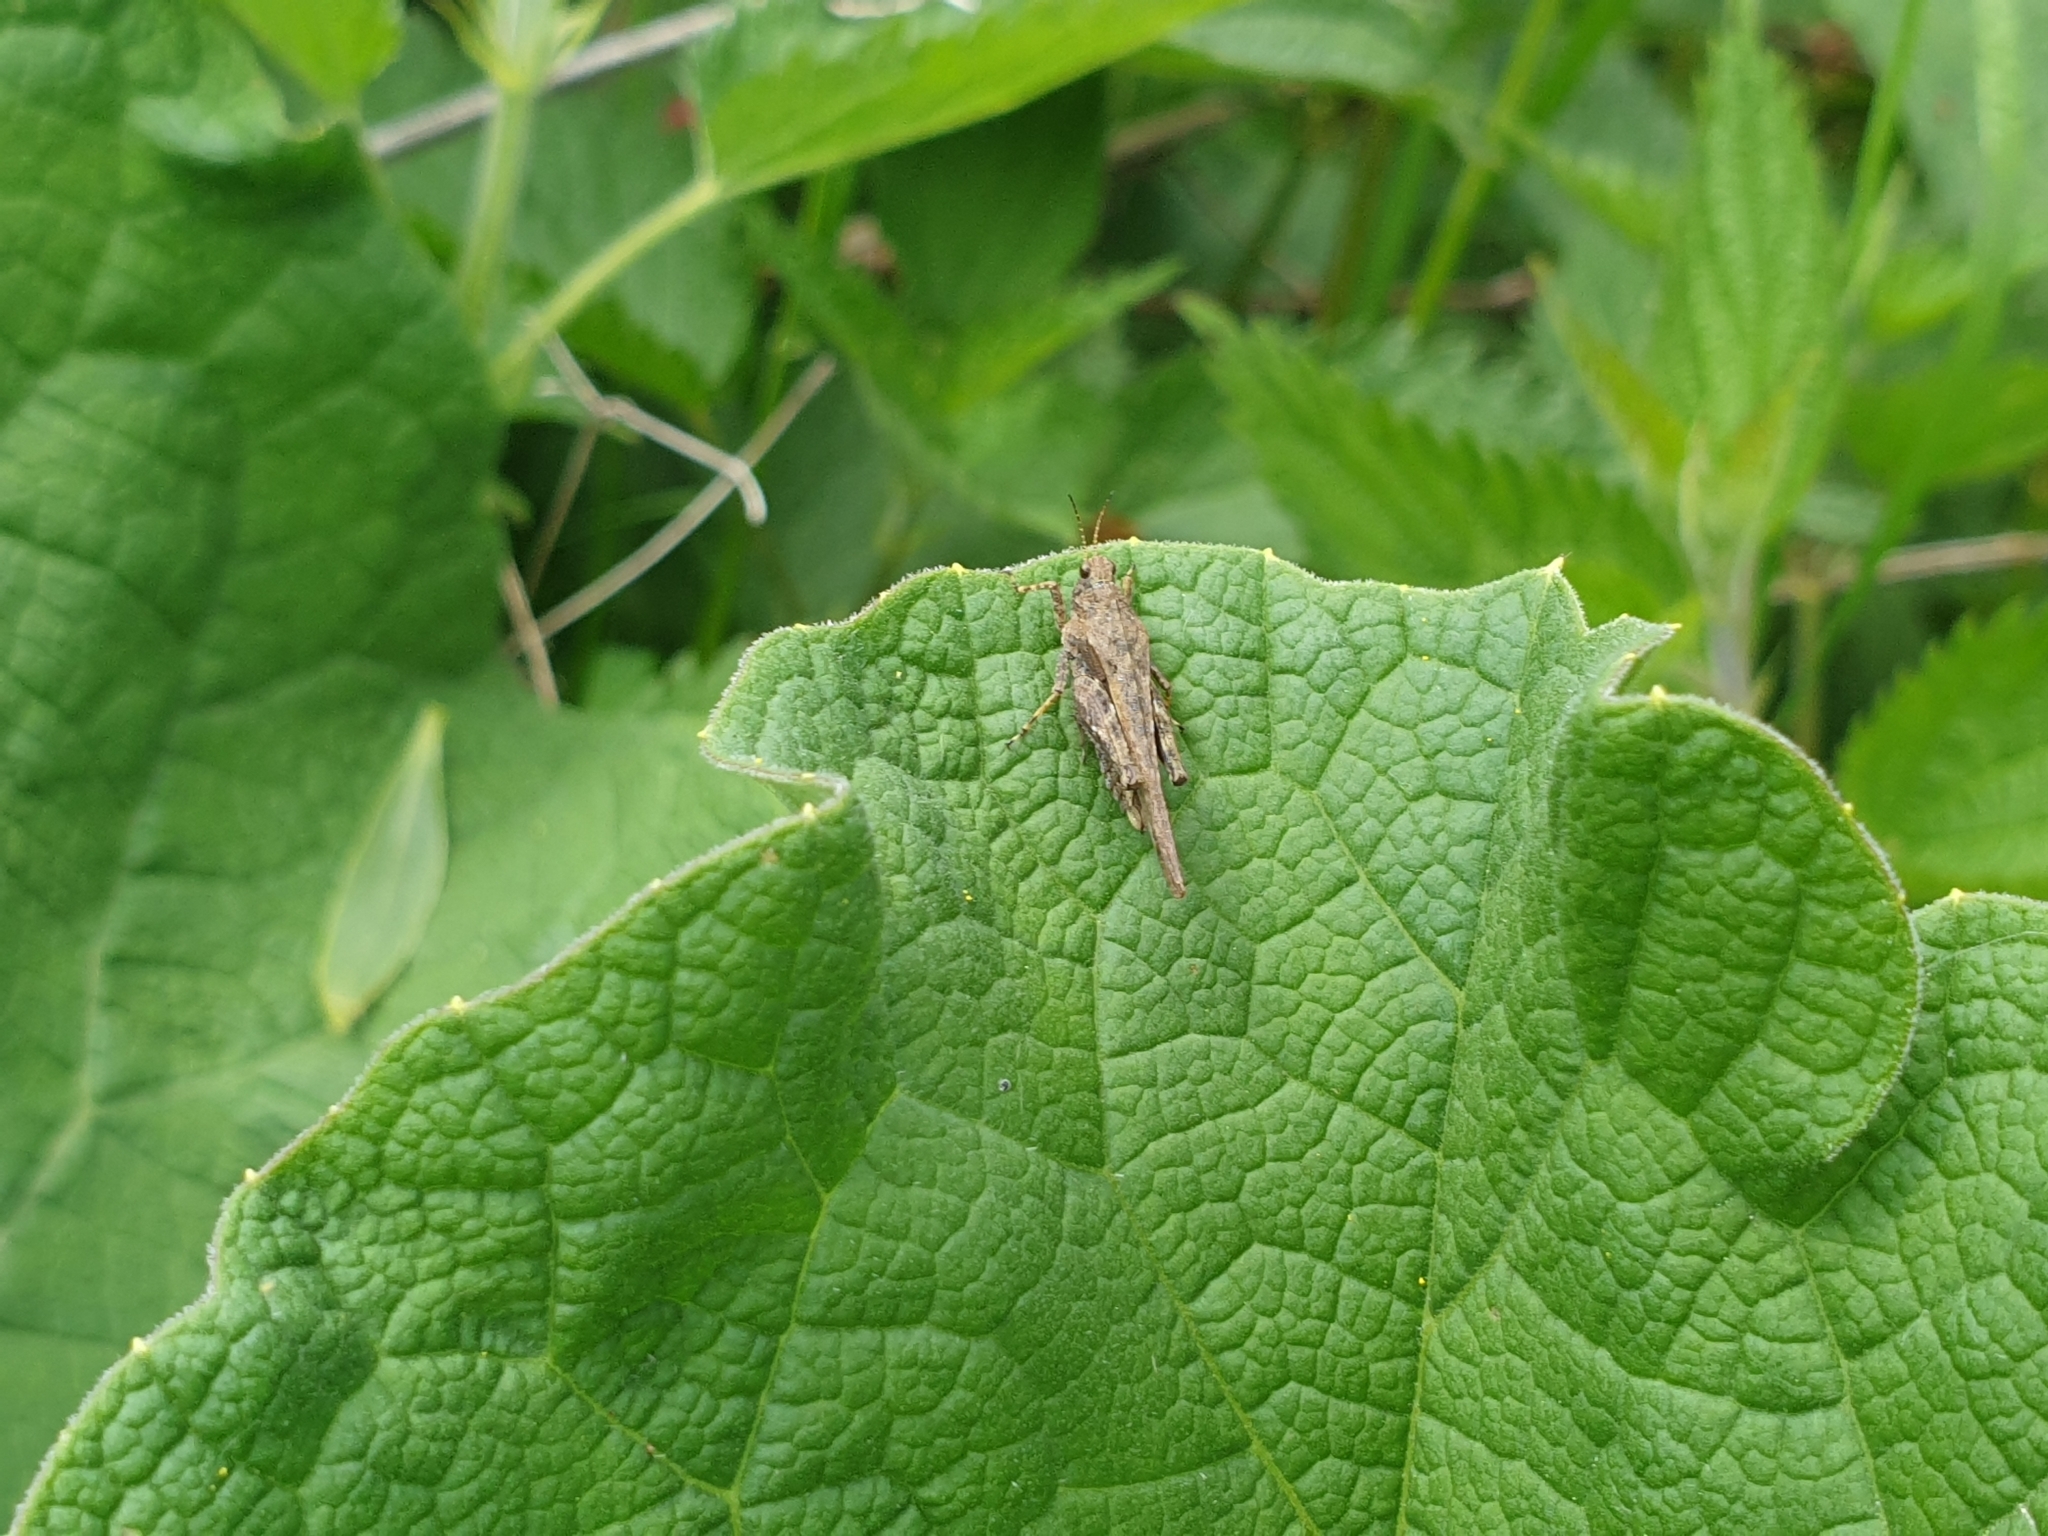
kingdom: Animalia
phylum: Arthropoda
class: Insecta
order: Orthoptera
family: Tetrigidae
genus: Tetrix
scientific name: Tetrix subulata
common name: Slender ground-hopper
